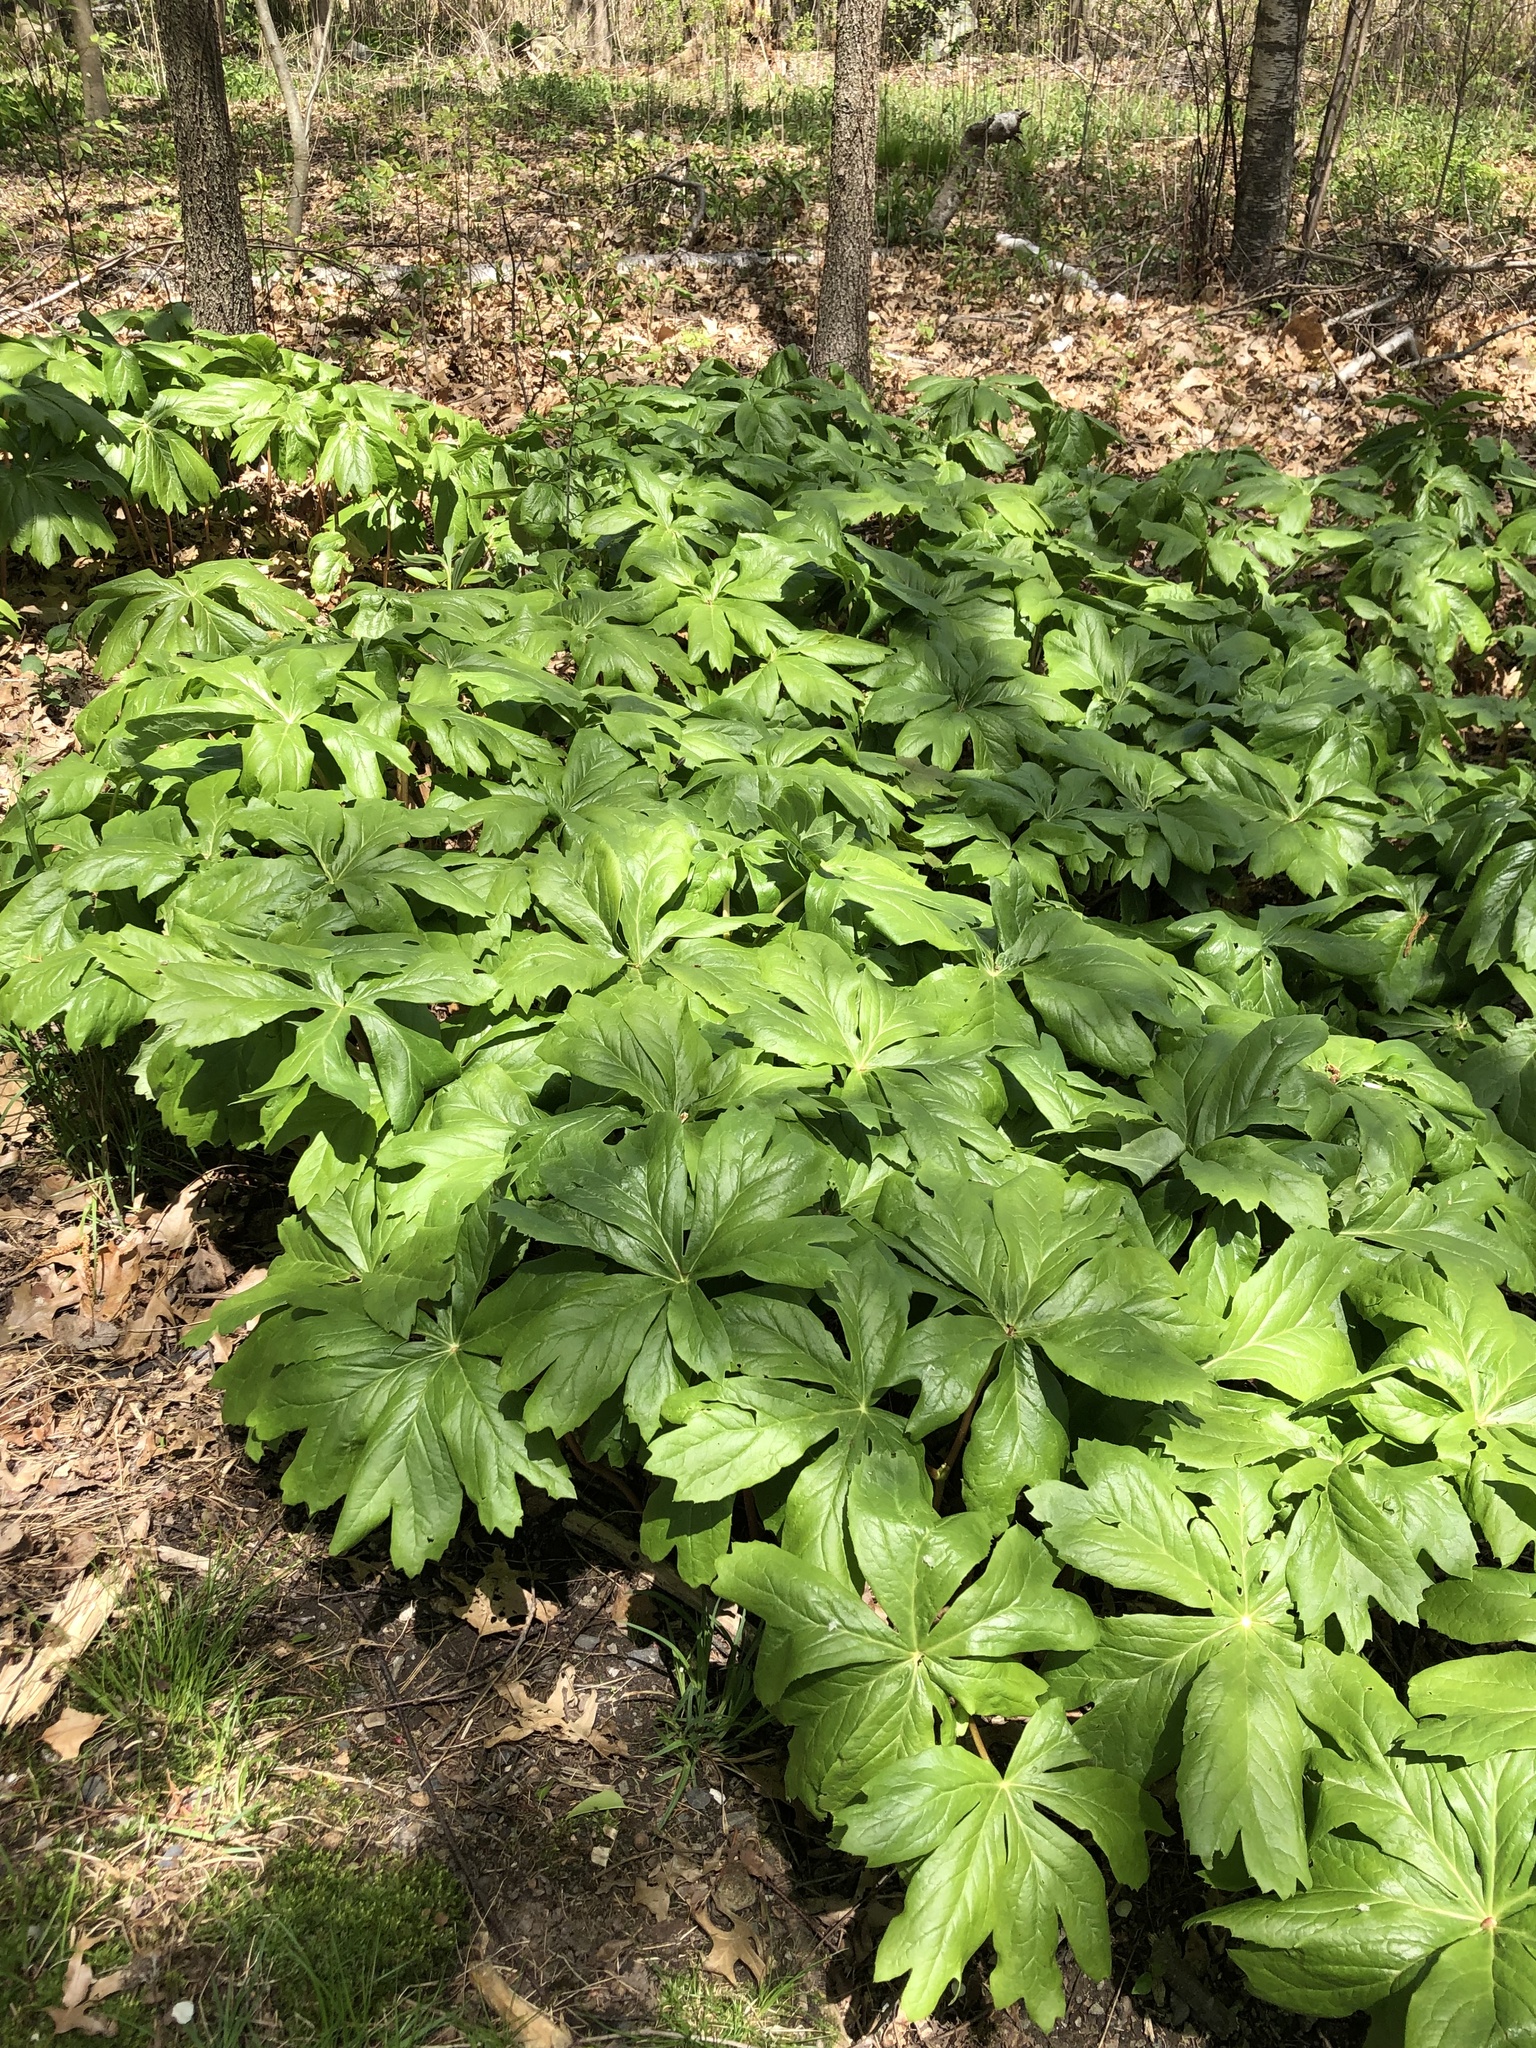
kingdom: Plantae
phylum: Tracheophyta
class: Magnoliopsida
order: Ranunculales
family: Berberidaceae
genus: Podophyllum
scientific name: Podophyllum peltatum
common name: Wild mandrake
